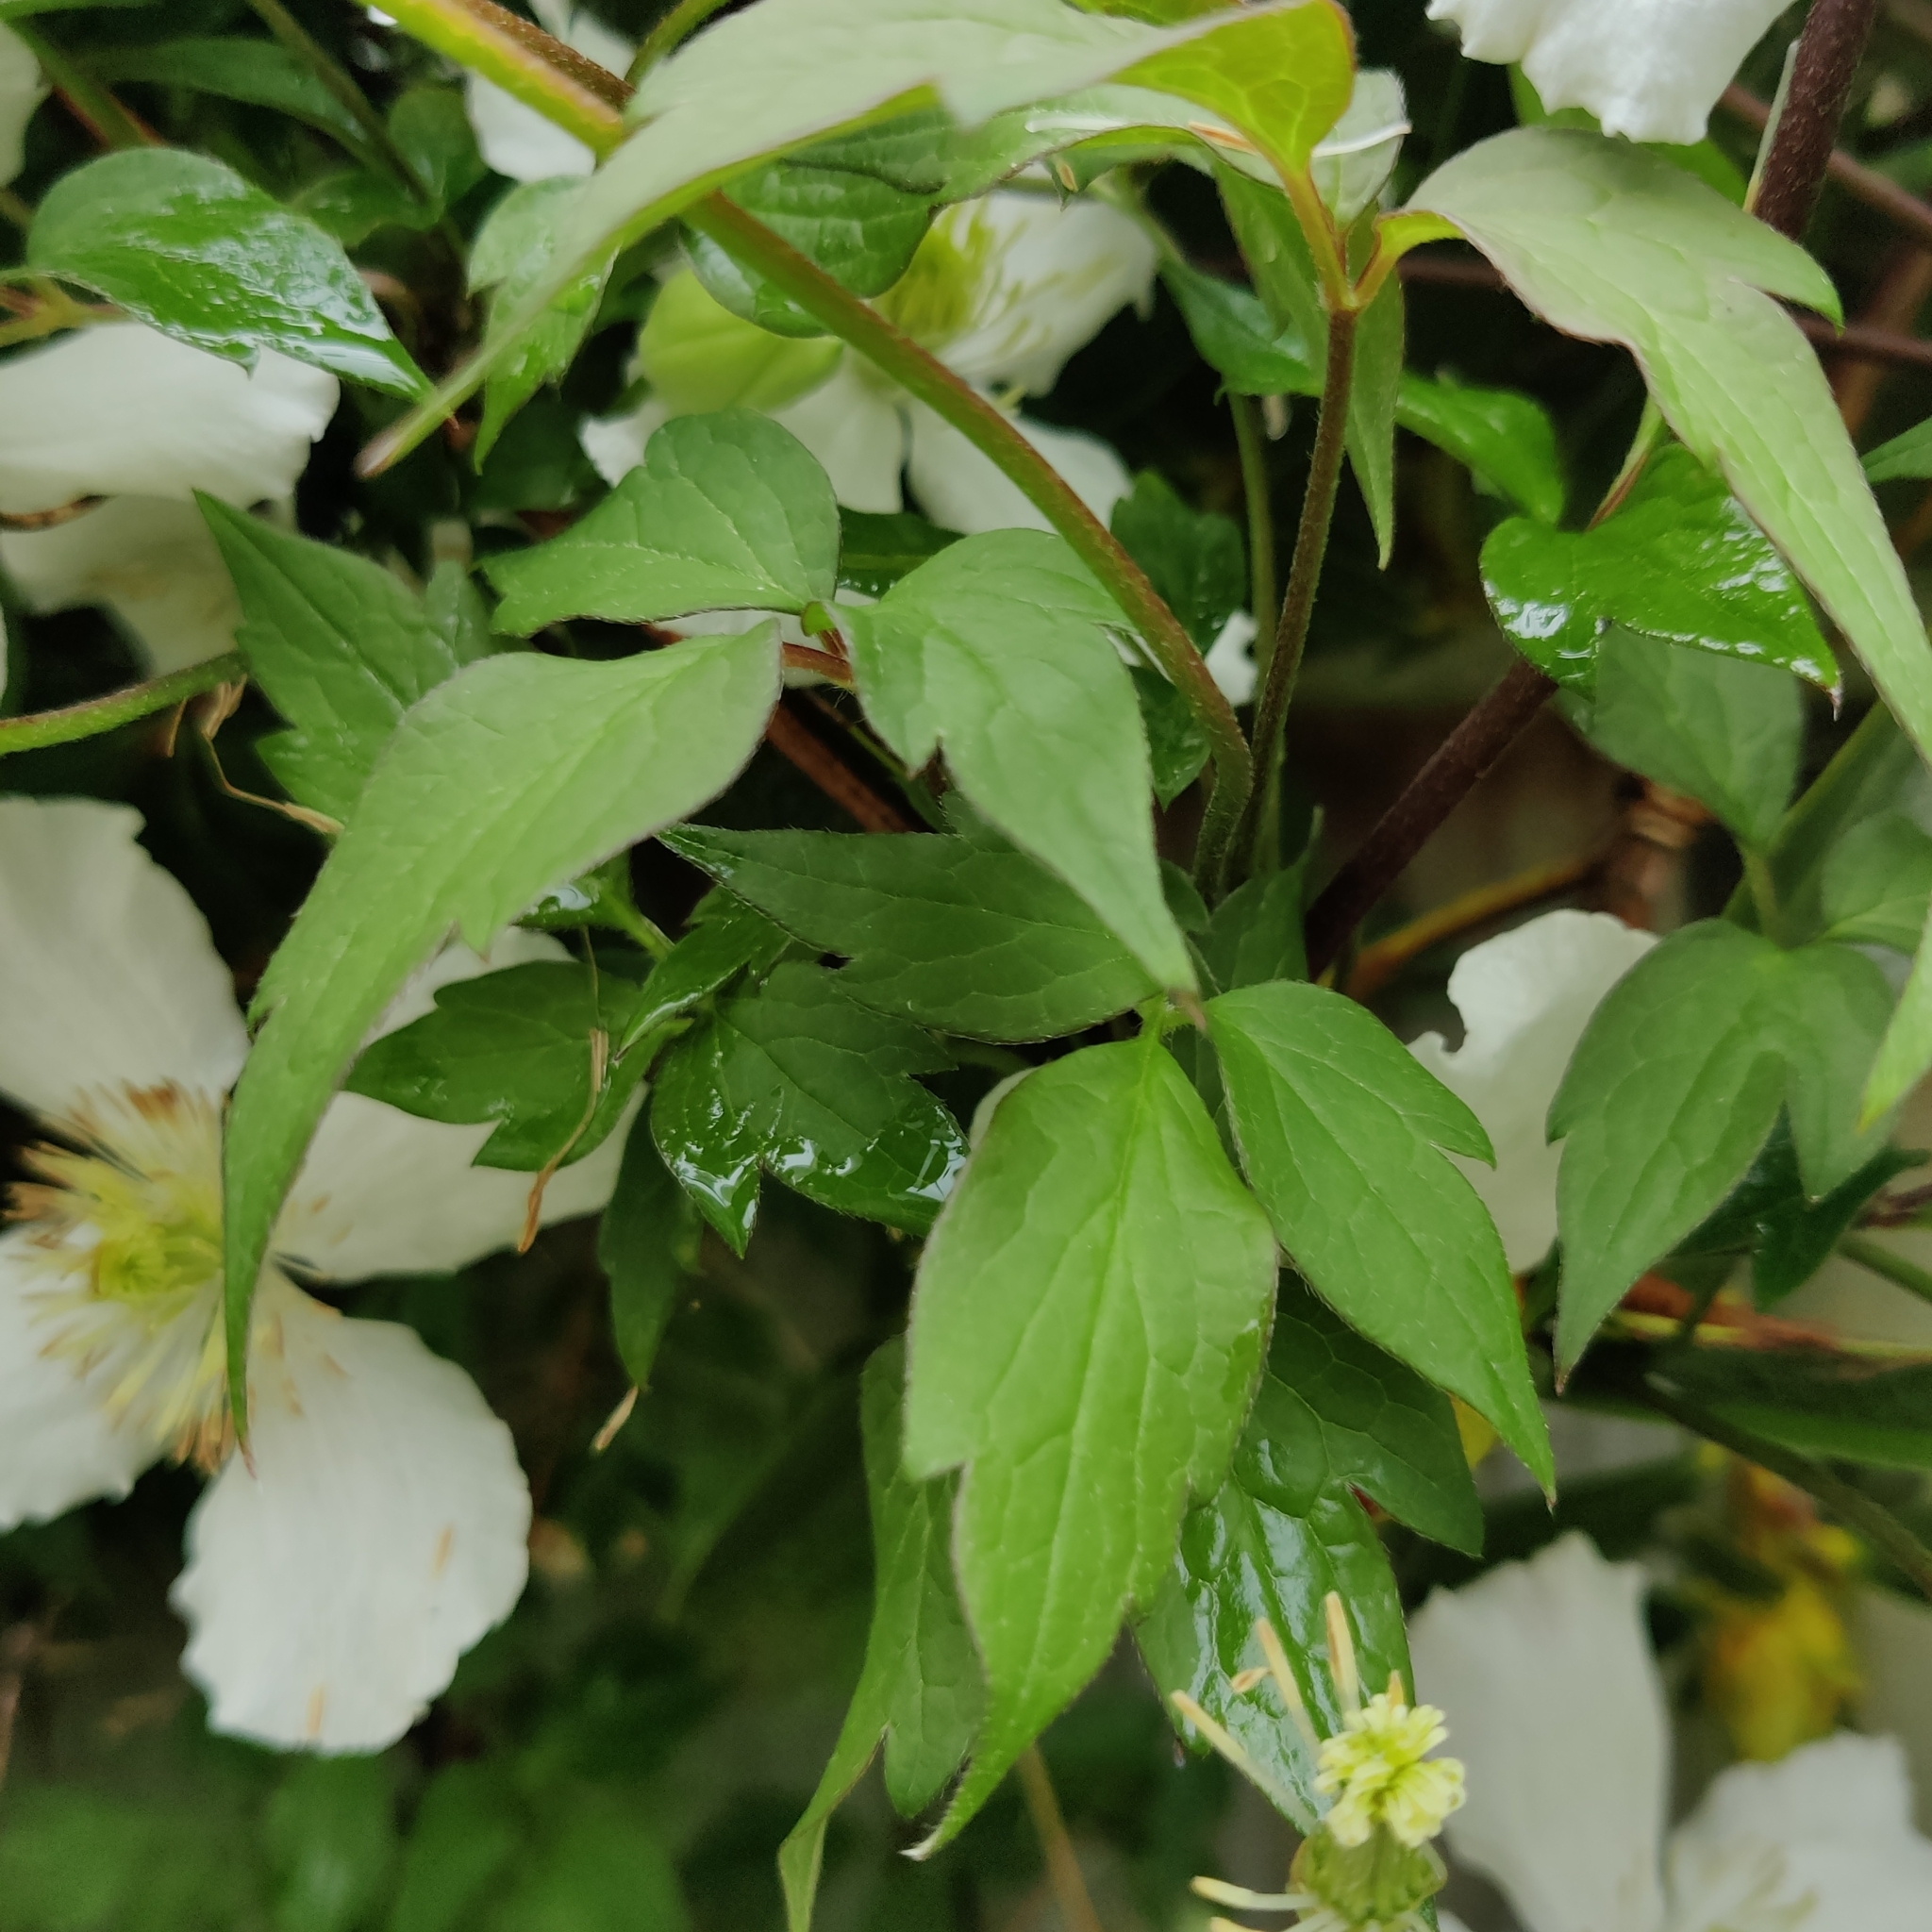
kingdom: Plantae
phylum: Tracheophyta
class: Magnoliopsida
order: Ranunculales
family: Ranunculaceae
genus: Clematis
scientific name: Clematis montana
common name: Himalayan clematis
